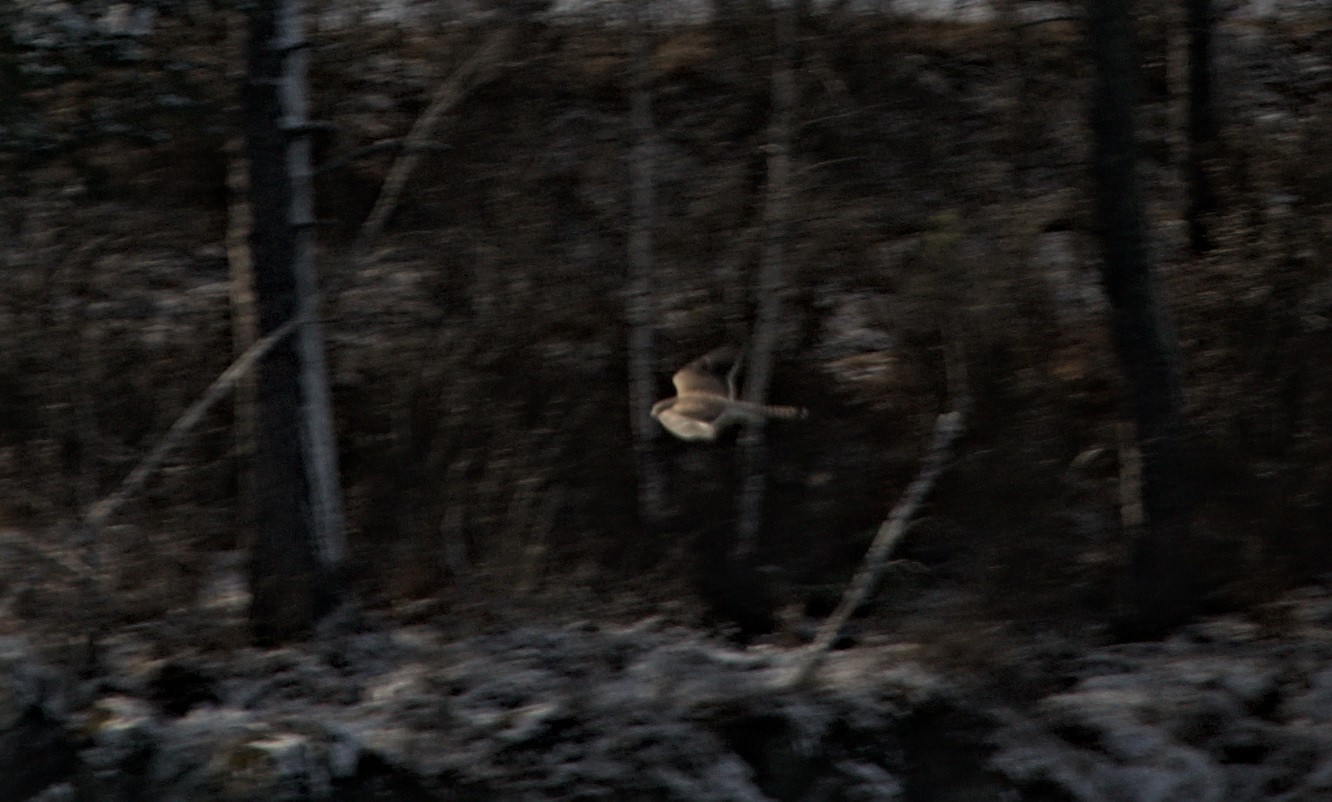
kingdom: Animalia
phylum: Chordata
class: Aves
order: Falconiformes
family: Falconidae
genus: Falco
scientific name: Falco tinnunculus
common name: Common kestrel
